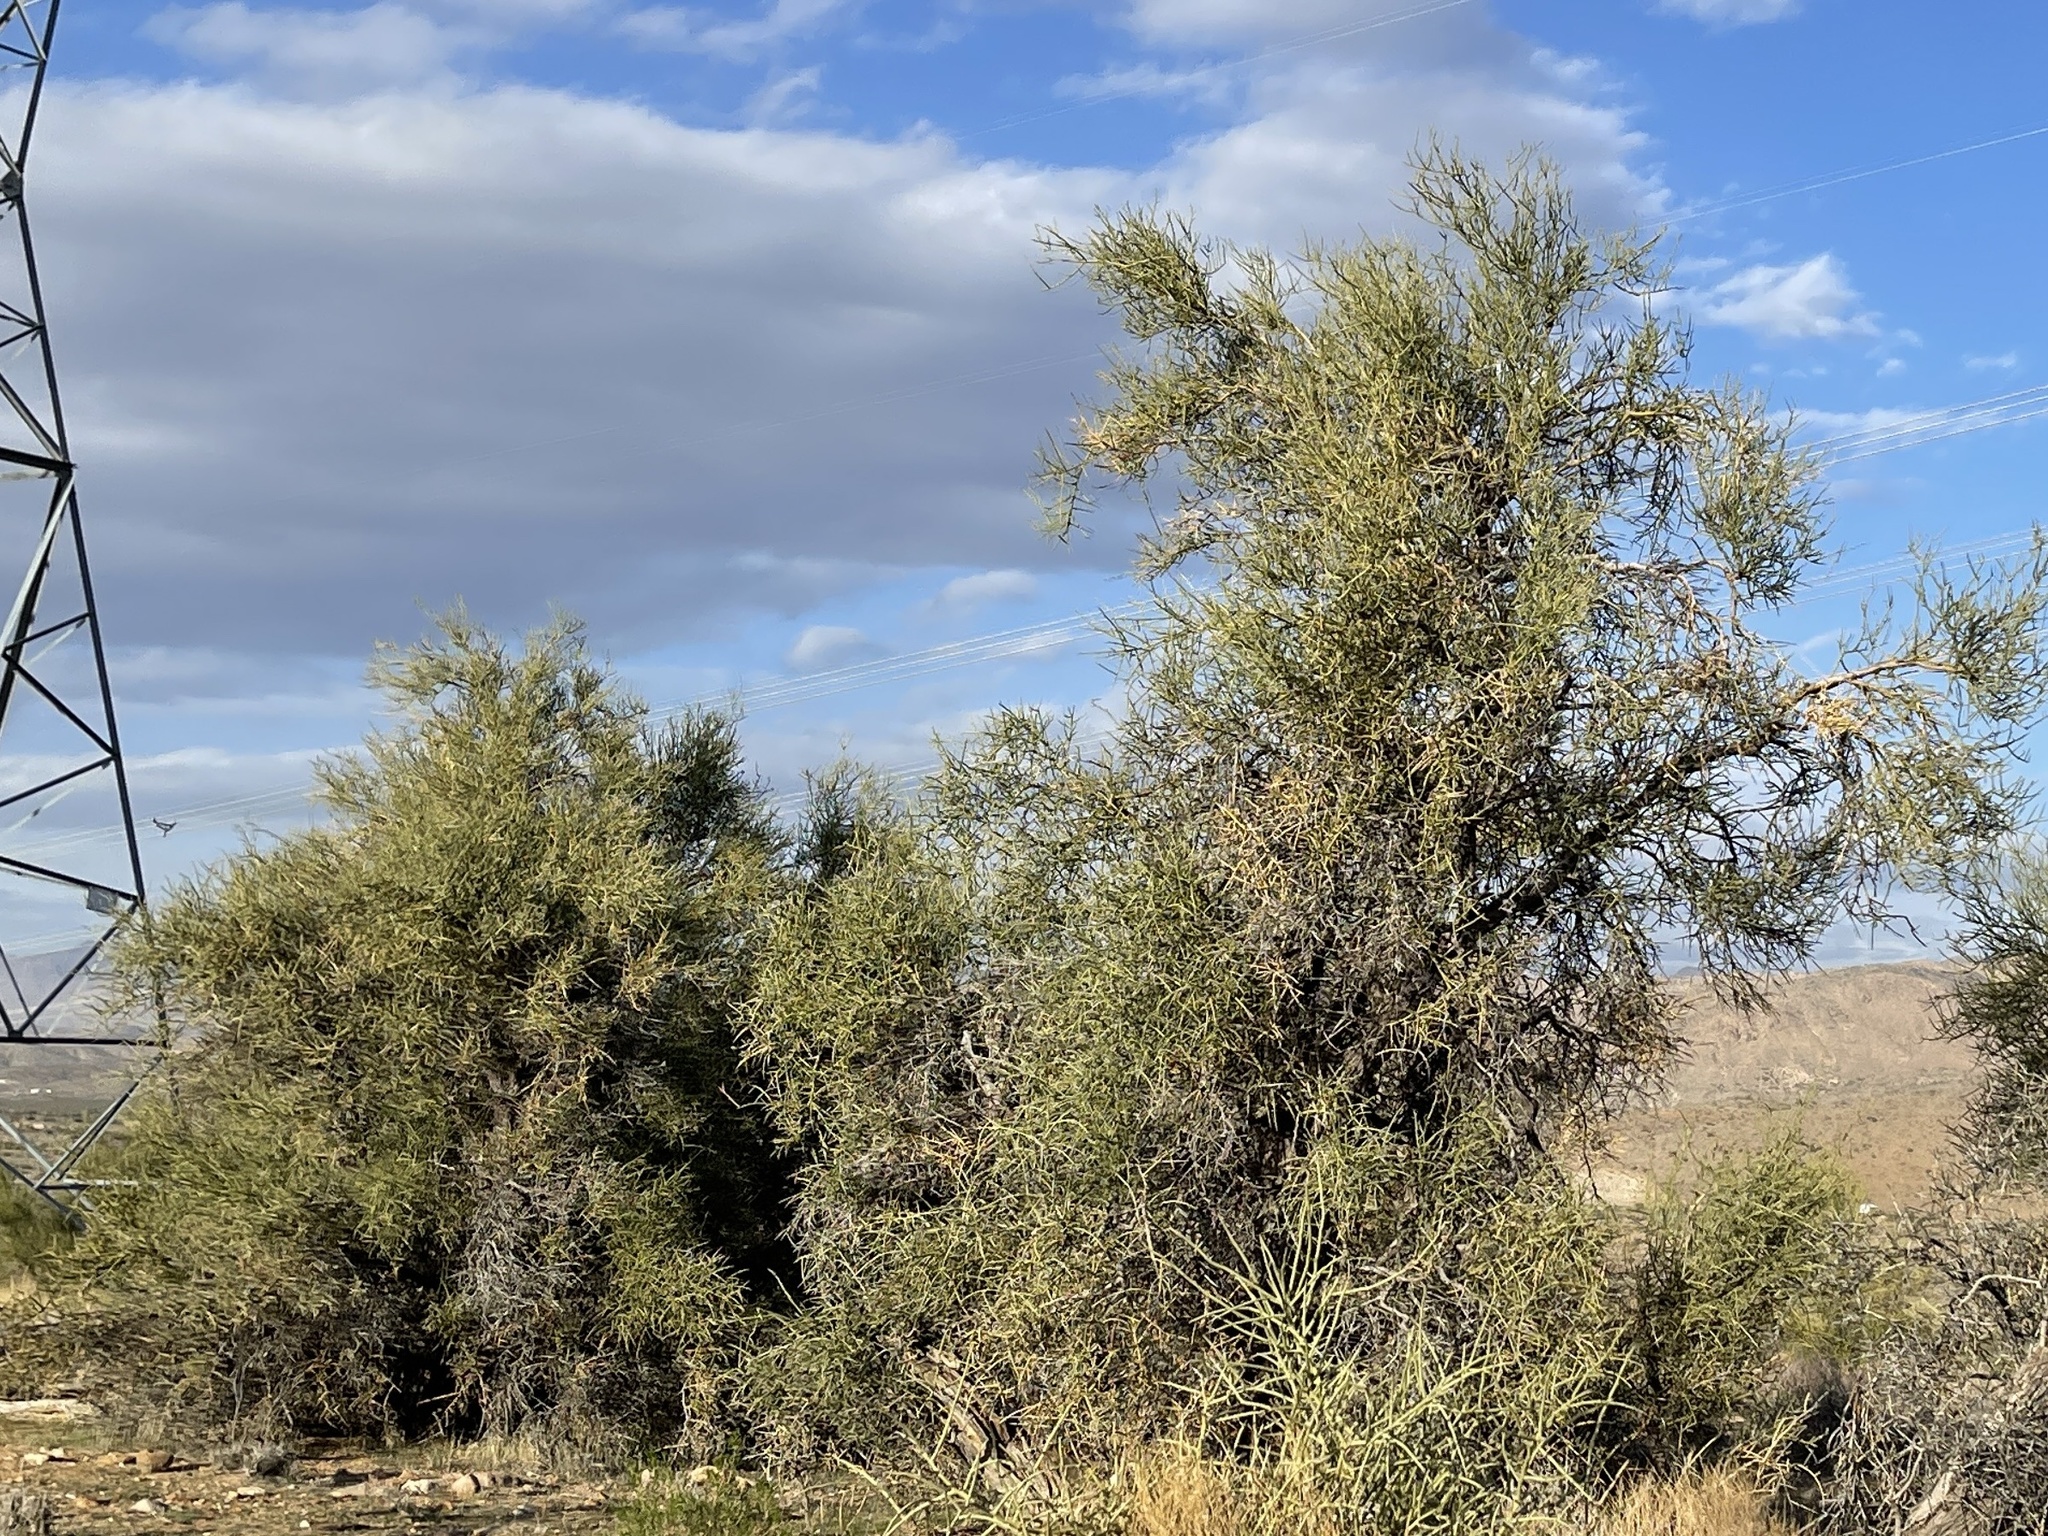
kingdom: Plantae
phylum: Tracheophyta
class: Magnoliopsida
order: Celastrales
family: Celastraceae
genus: Canotia
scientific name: Canotia holacantha
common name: Crucifixion thorns
